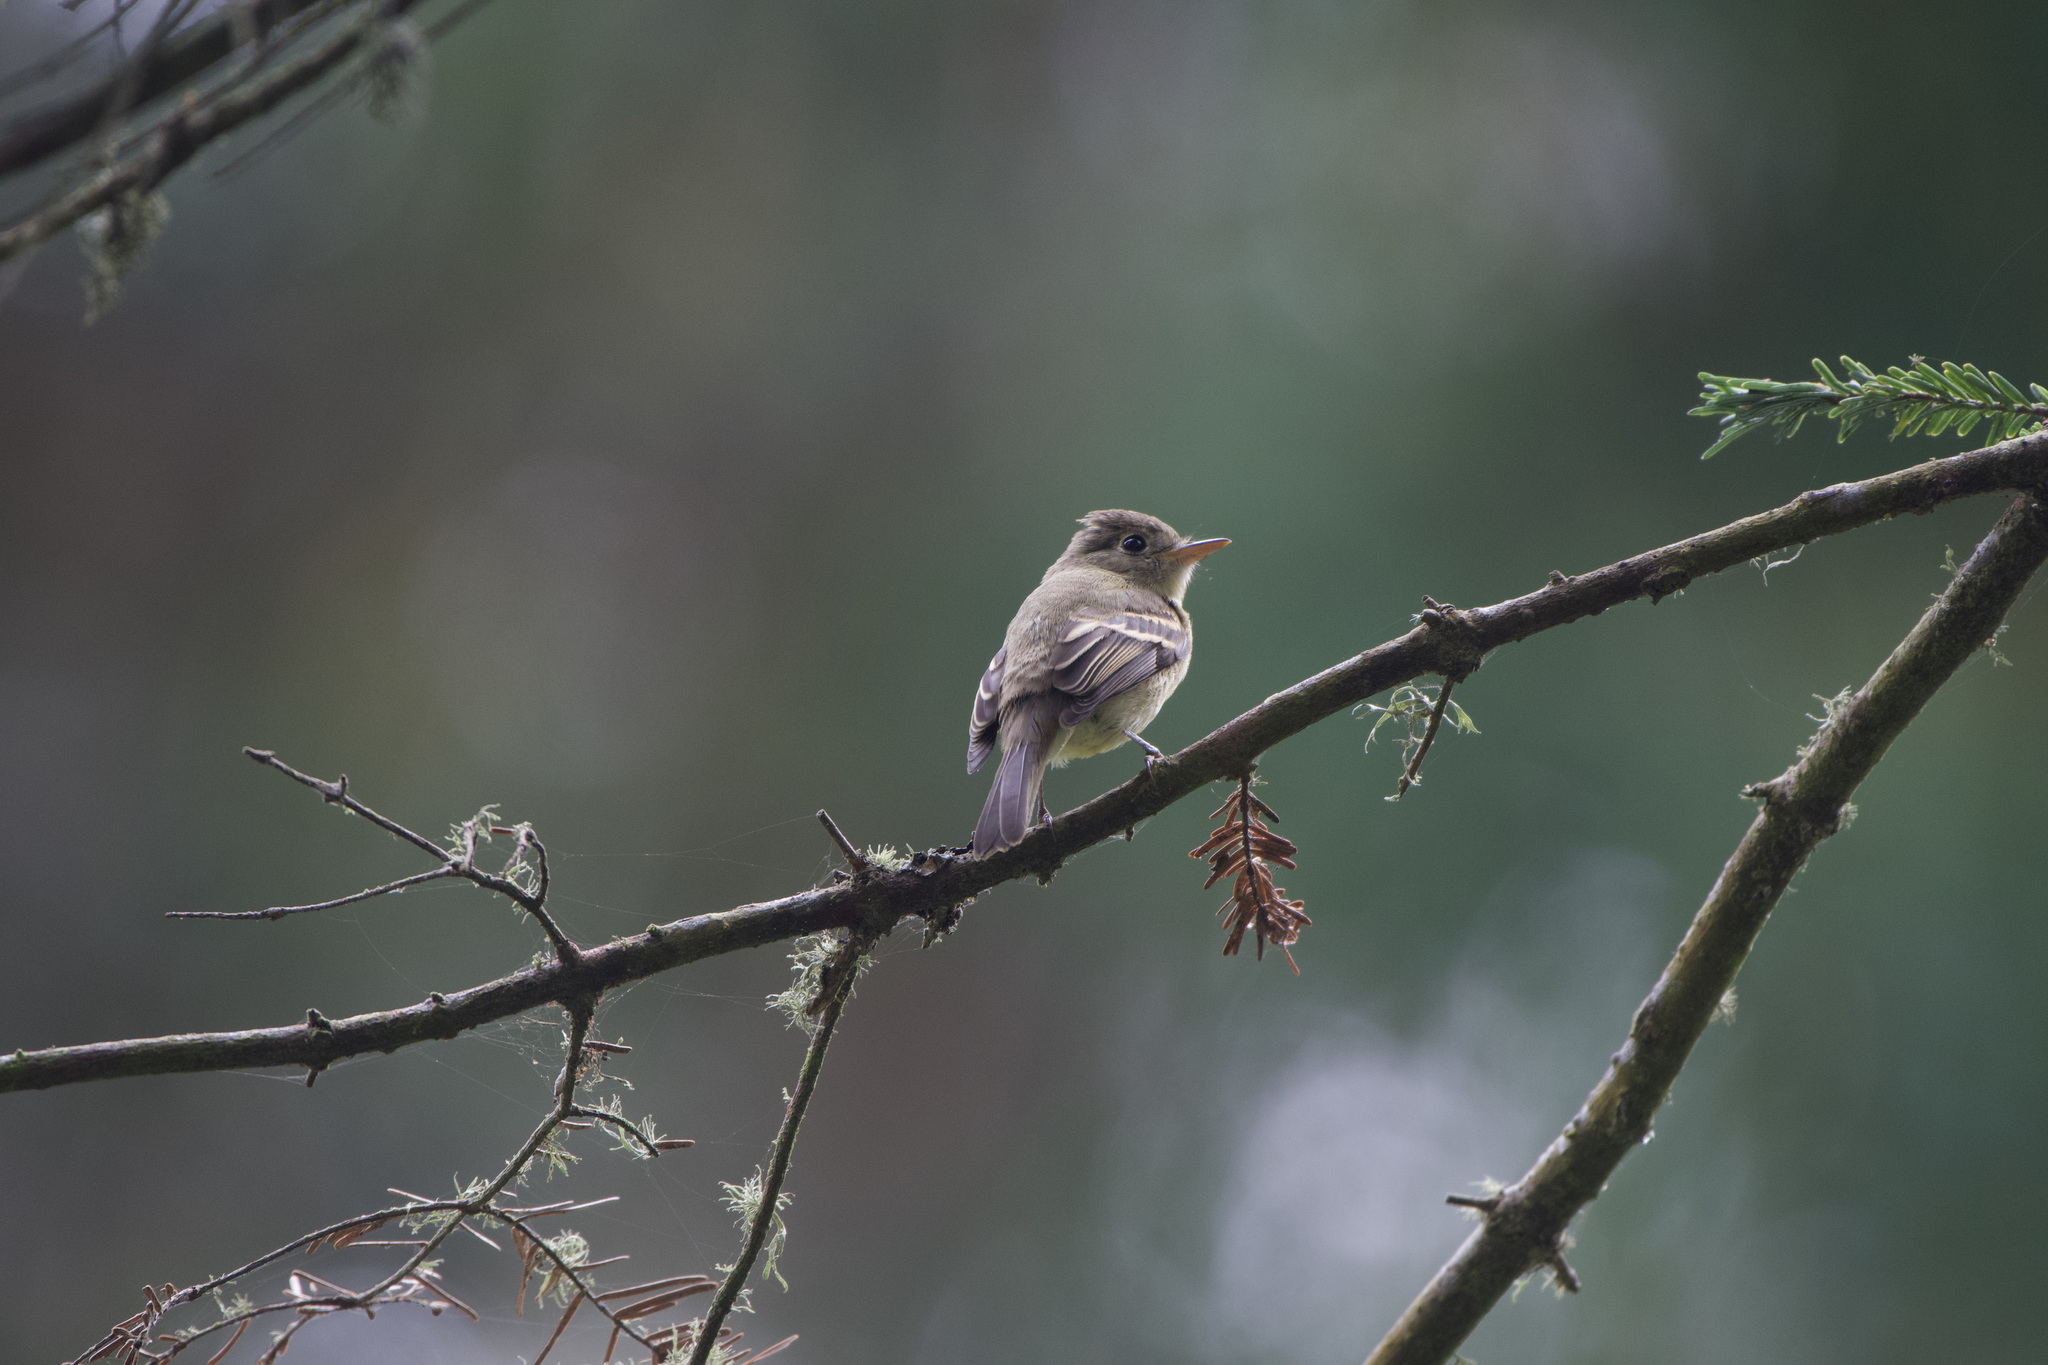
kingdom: Animalia
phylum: Chordata
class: Aves
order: Passeriformes
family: Tyrannidae
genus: Empidonax
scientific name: Empidonax difficilis
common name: Pacific-slope flycatcher
